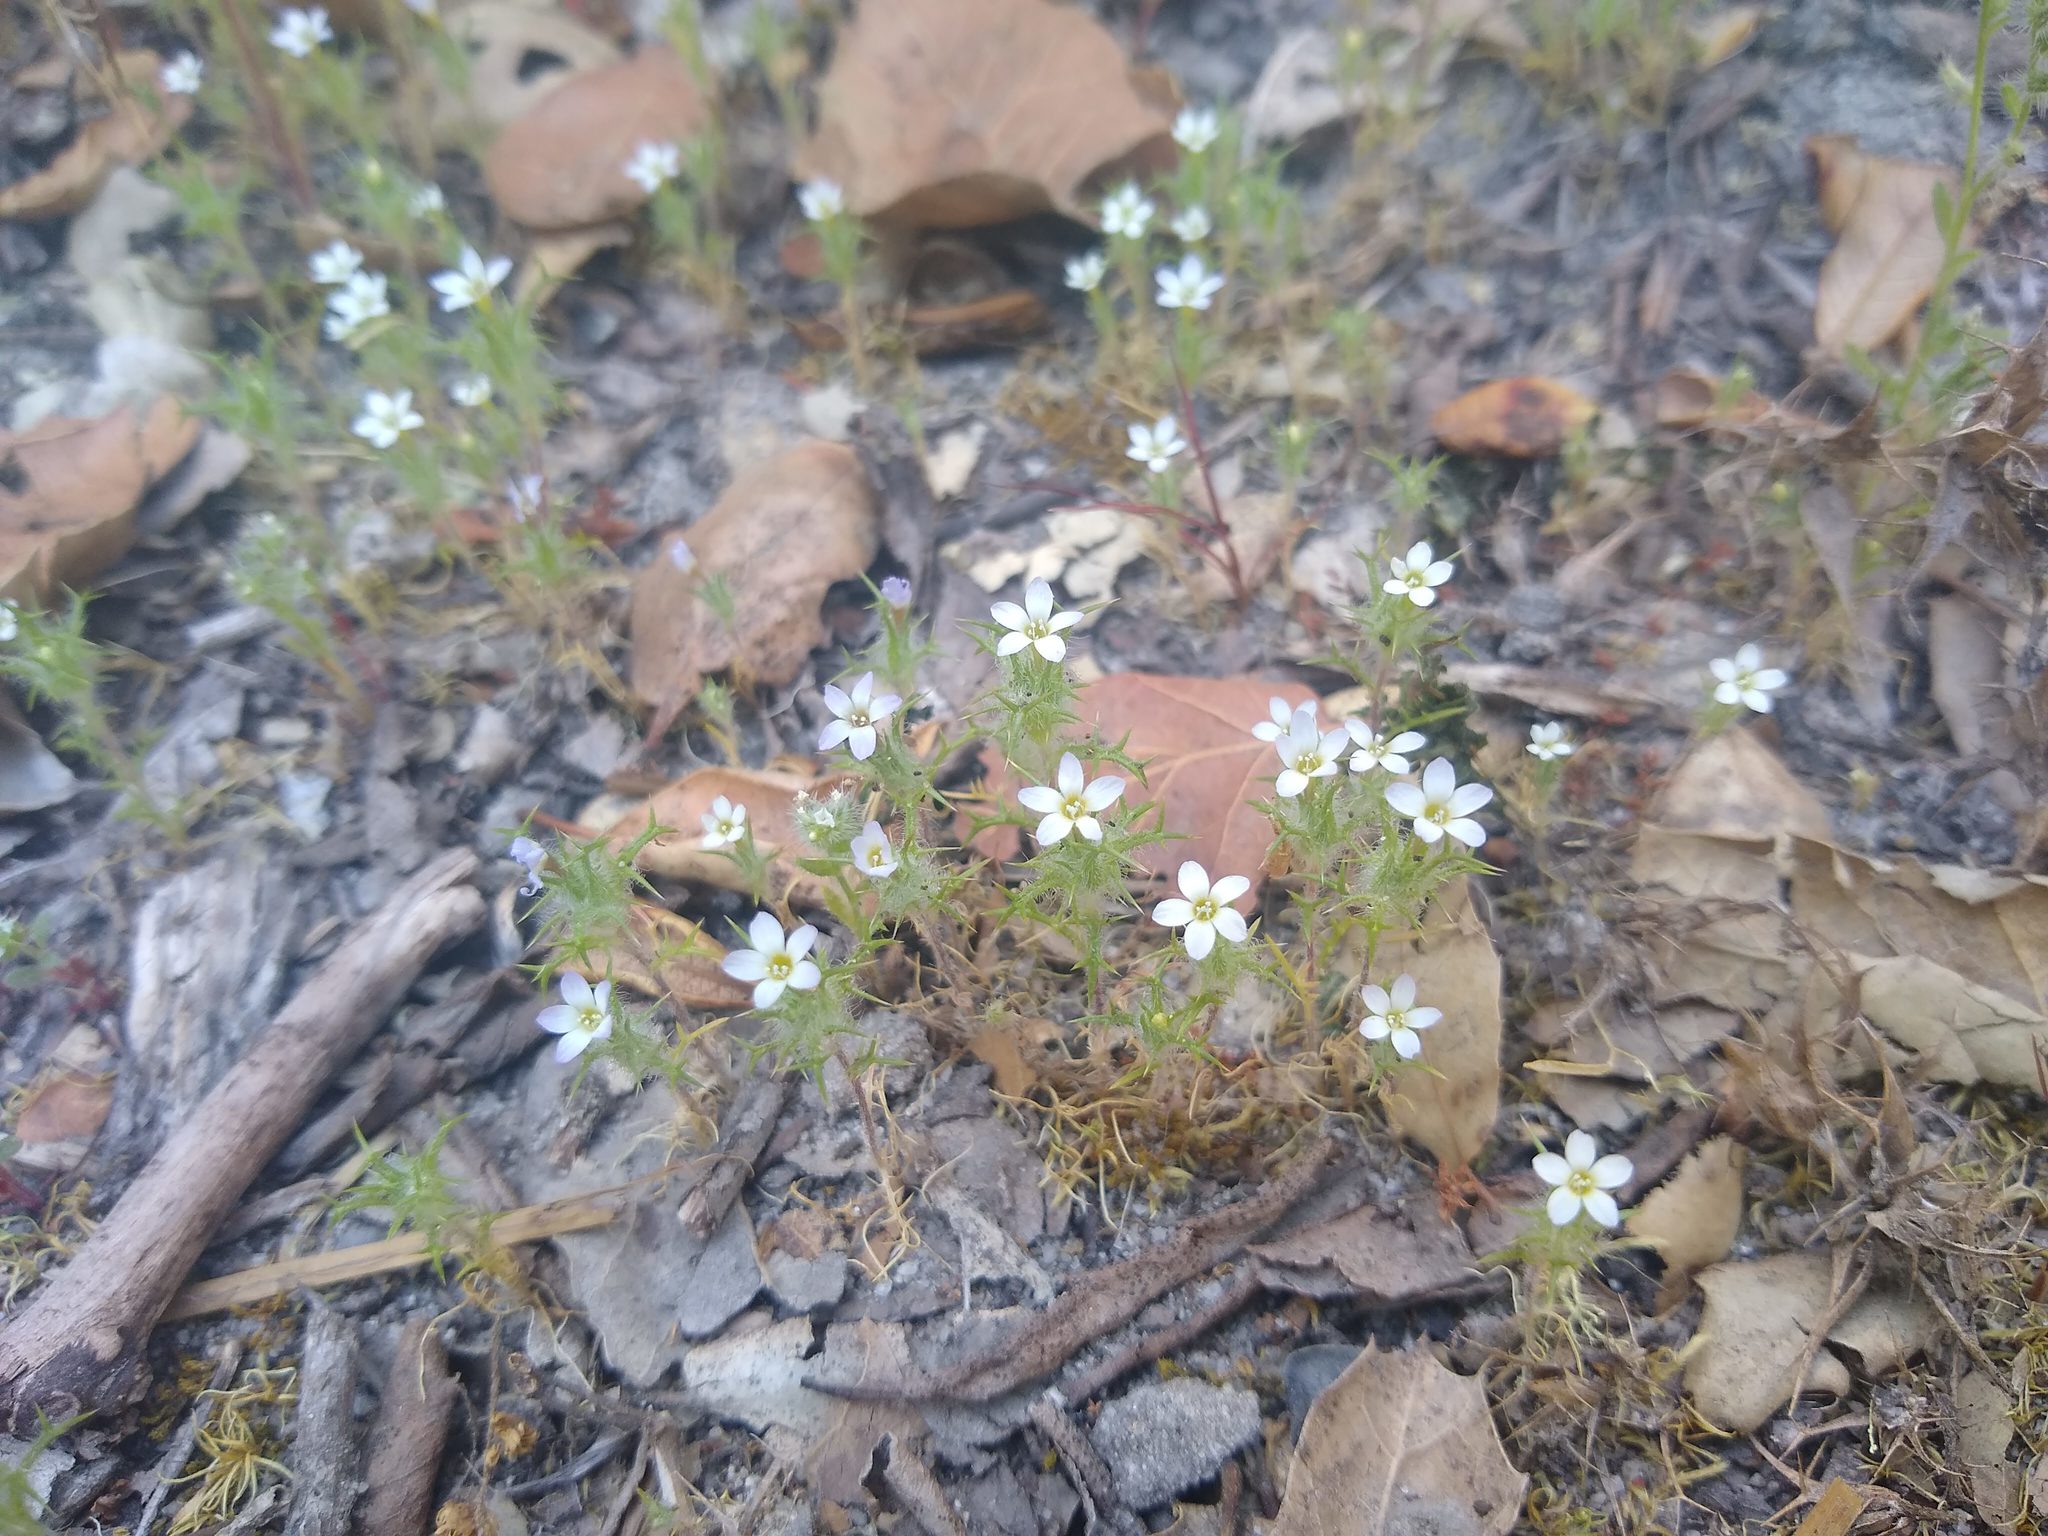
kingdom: Plantae
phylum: Tracheophyta
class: Magnoliopsida
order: Ericales
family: Polemoniaceae
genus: Navarretia
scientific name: Navarretia hamata
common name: Hooked navarretia
